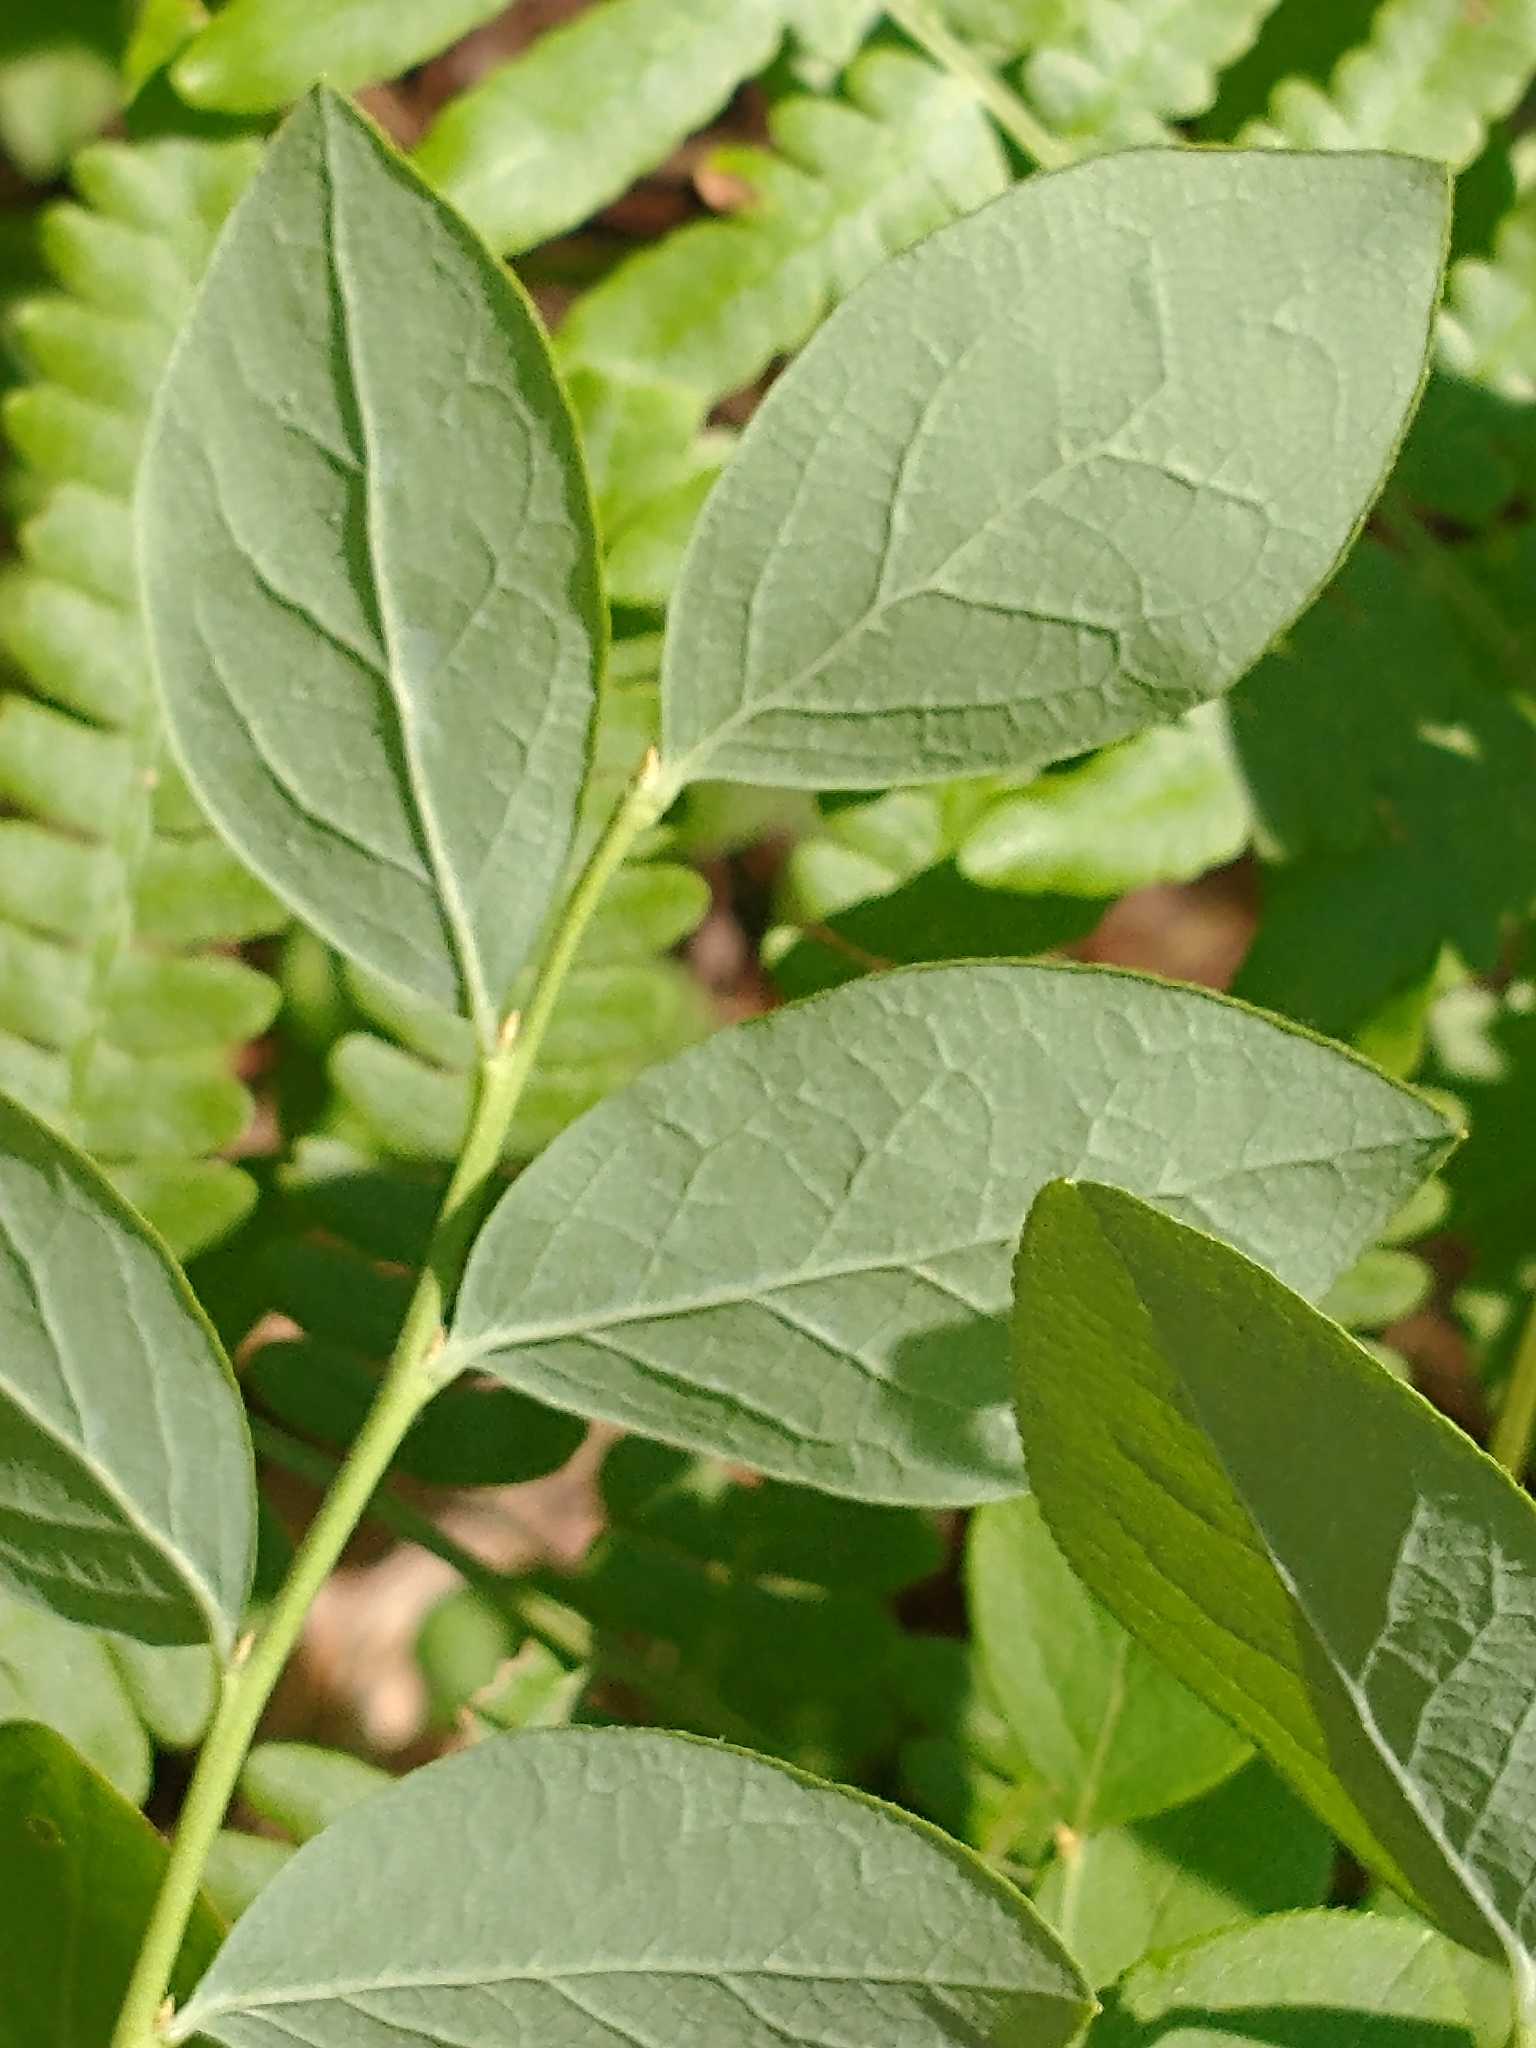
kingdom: Plantae
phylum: Tracheophyta
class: Magnoliopsida
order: Ericales
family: Ericaceae
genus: Vaccinium
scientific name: Vaccinium pallidum
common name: Blue ridge blueberry
